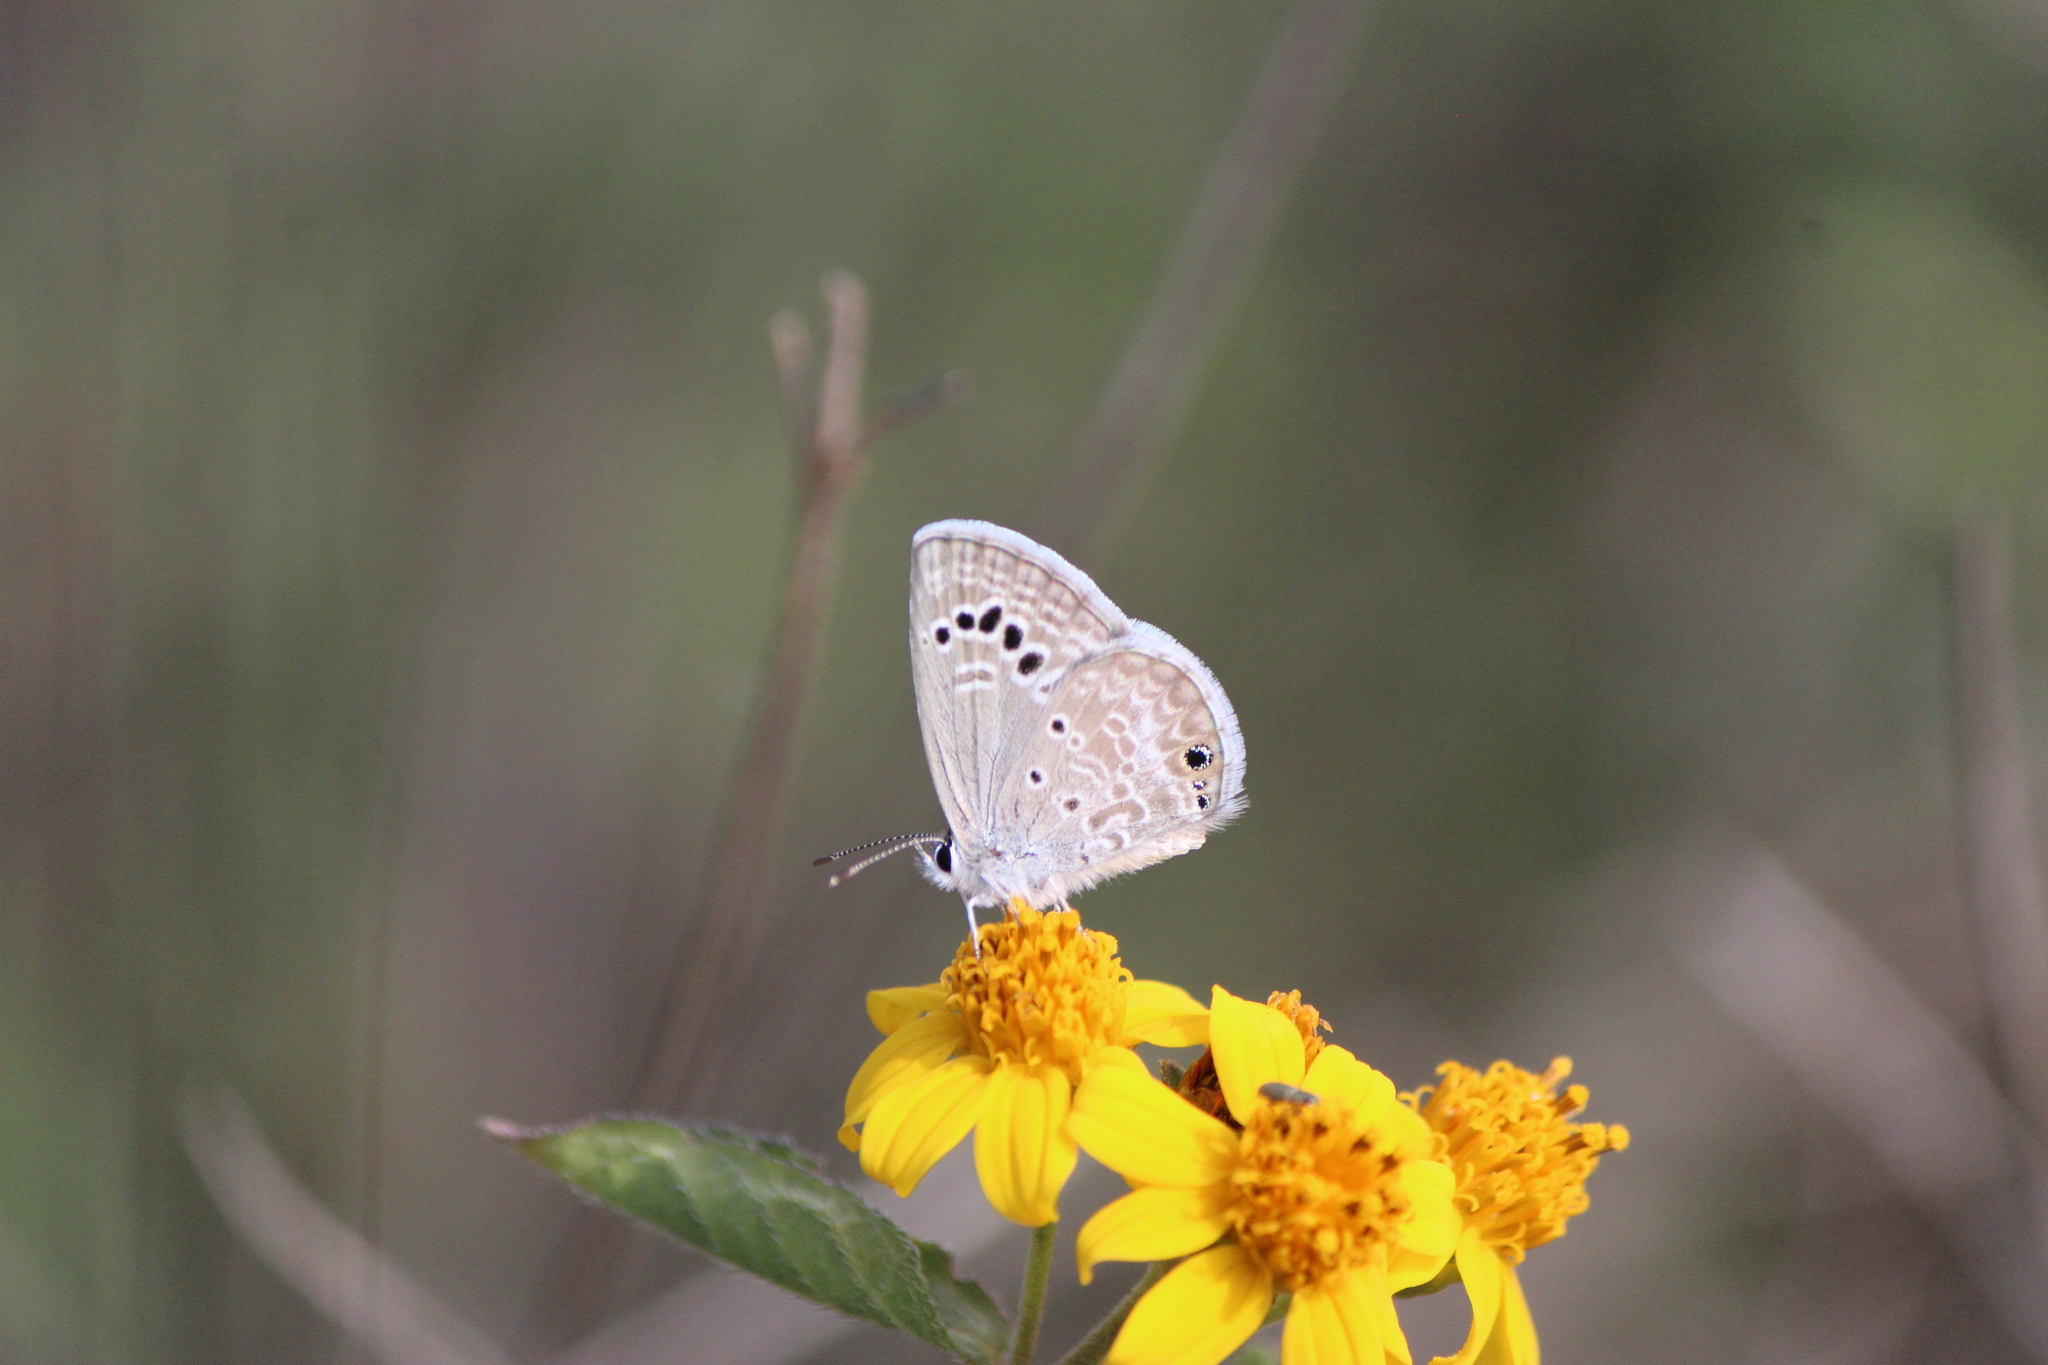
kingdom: Animalia
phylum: Arthropoda
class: Insecta
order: Lepidoptera
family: Lycaenidae
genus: Echinargus
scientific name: Echinargus isola
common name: Reakirt's blue
